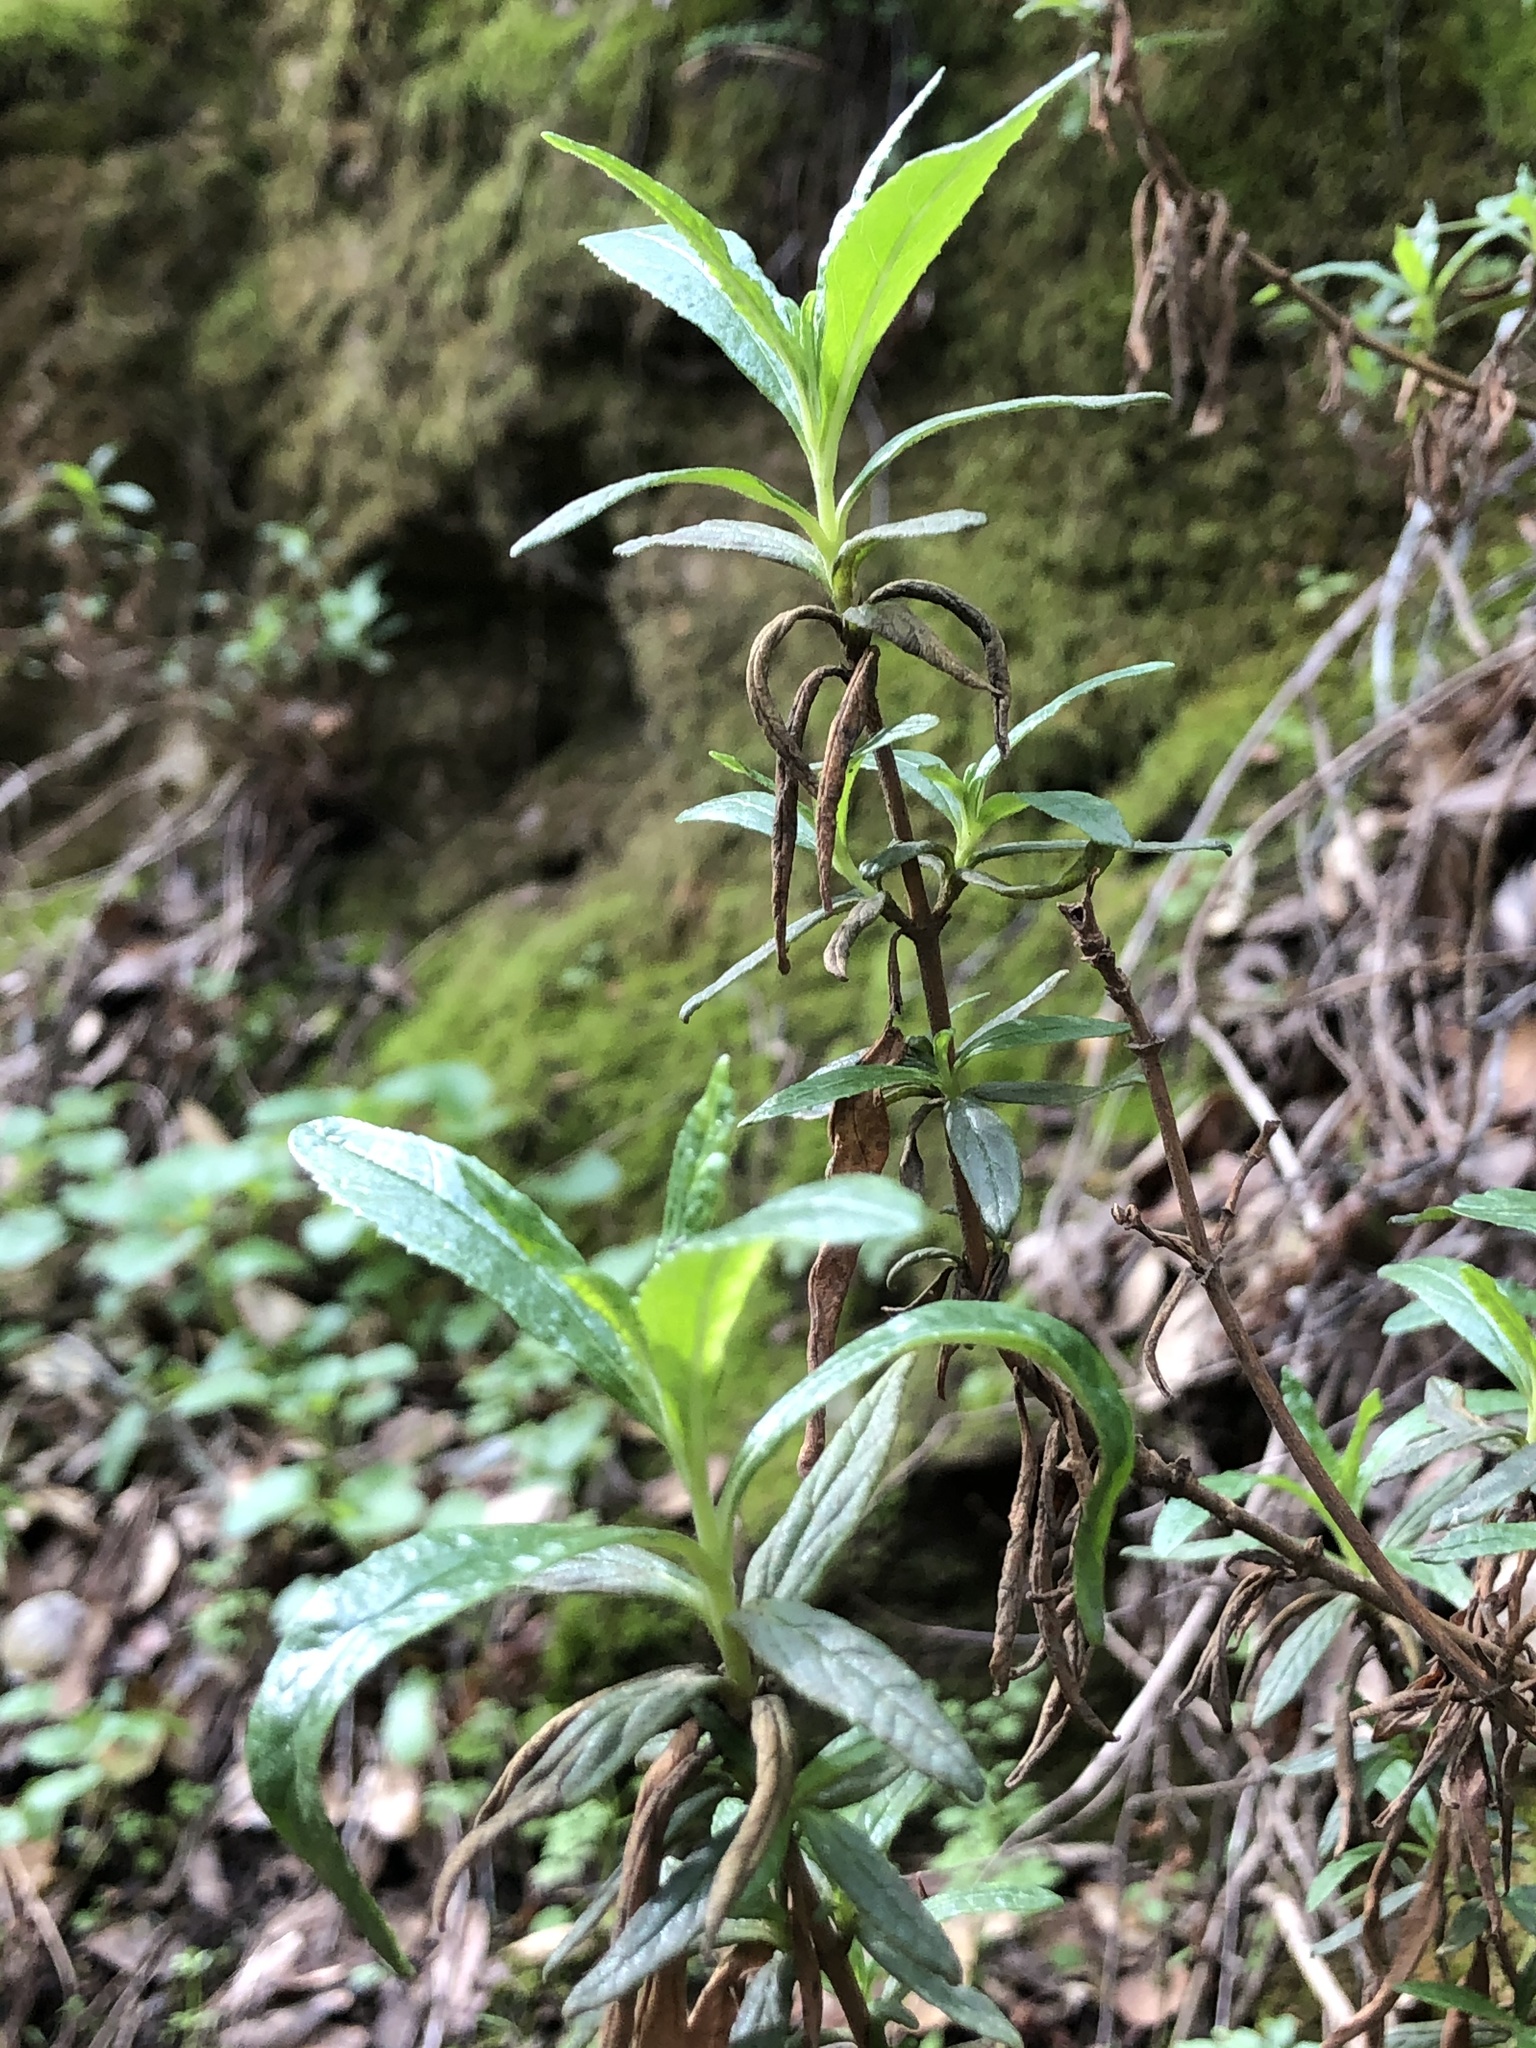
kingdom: Plantae
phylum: Tracheophyta
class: Magnoliopsida
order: Lamiales
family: Phrymaceae
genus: Diplacus
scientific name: Diplacus aurantiacus
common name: Bush monkey-flower
